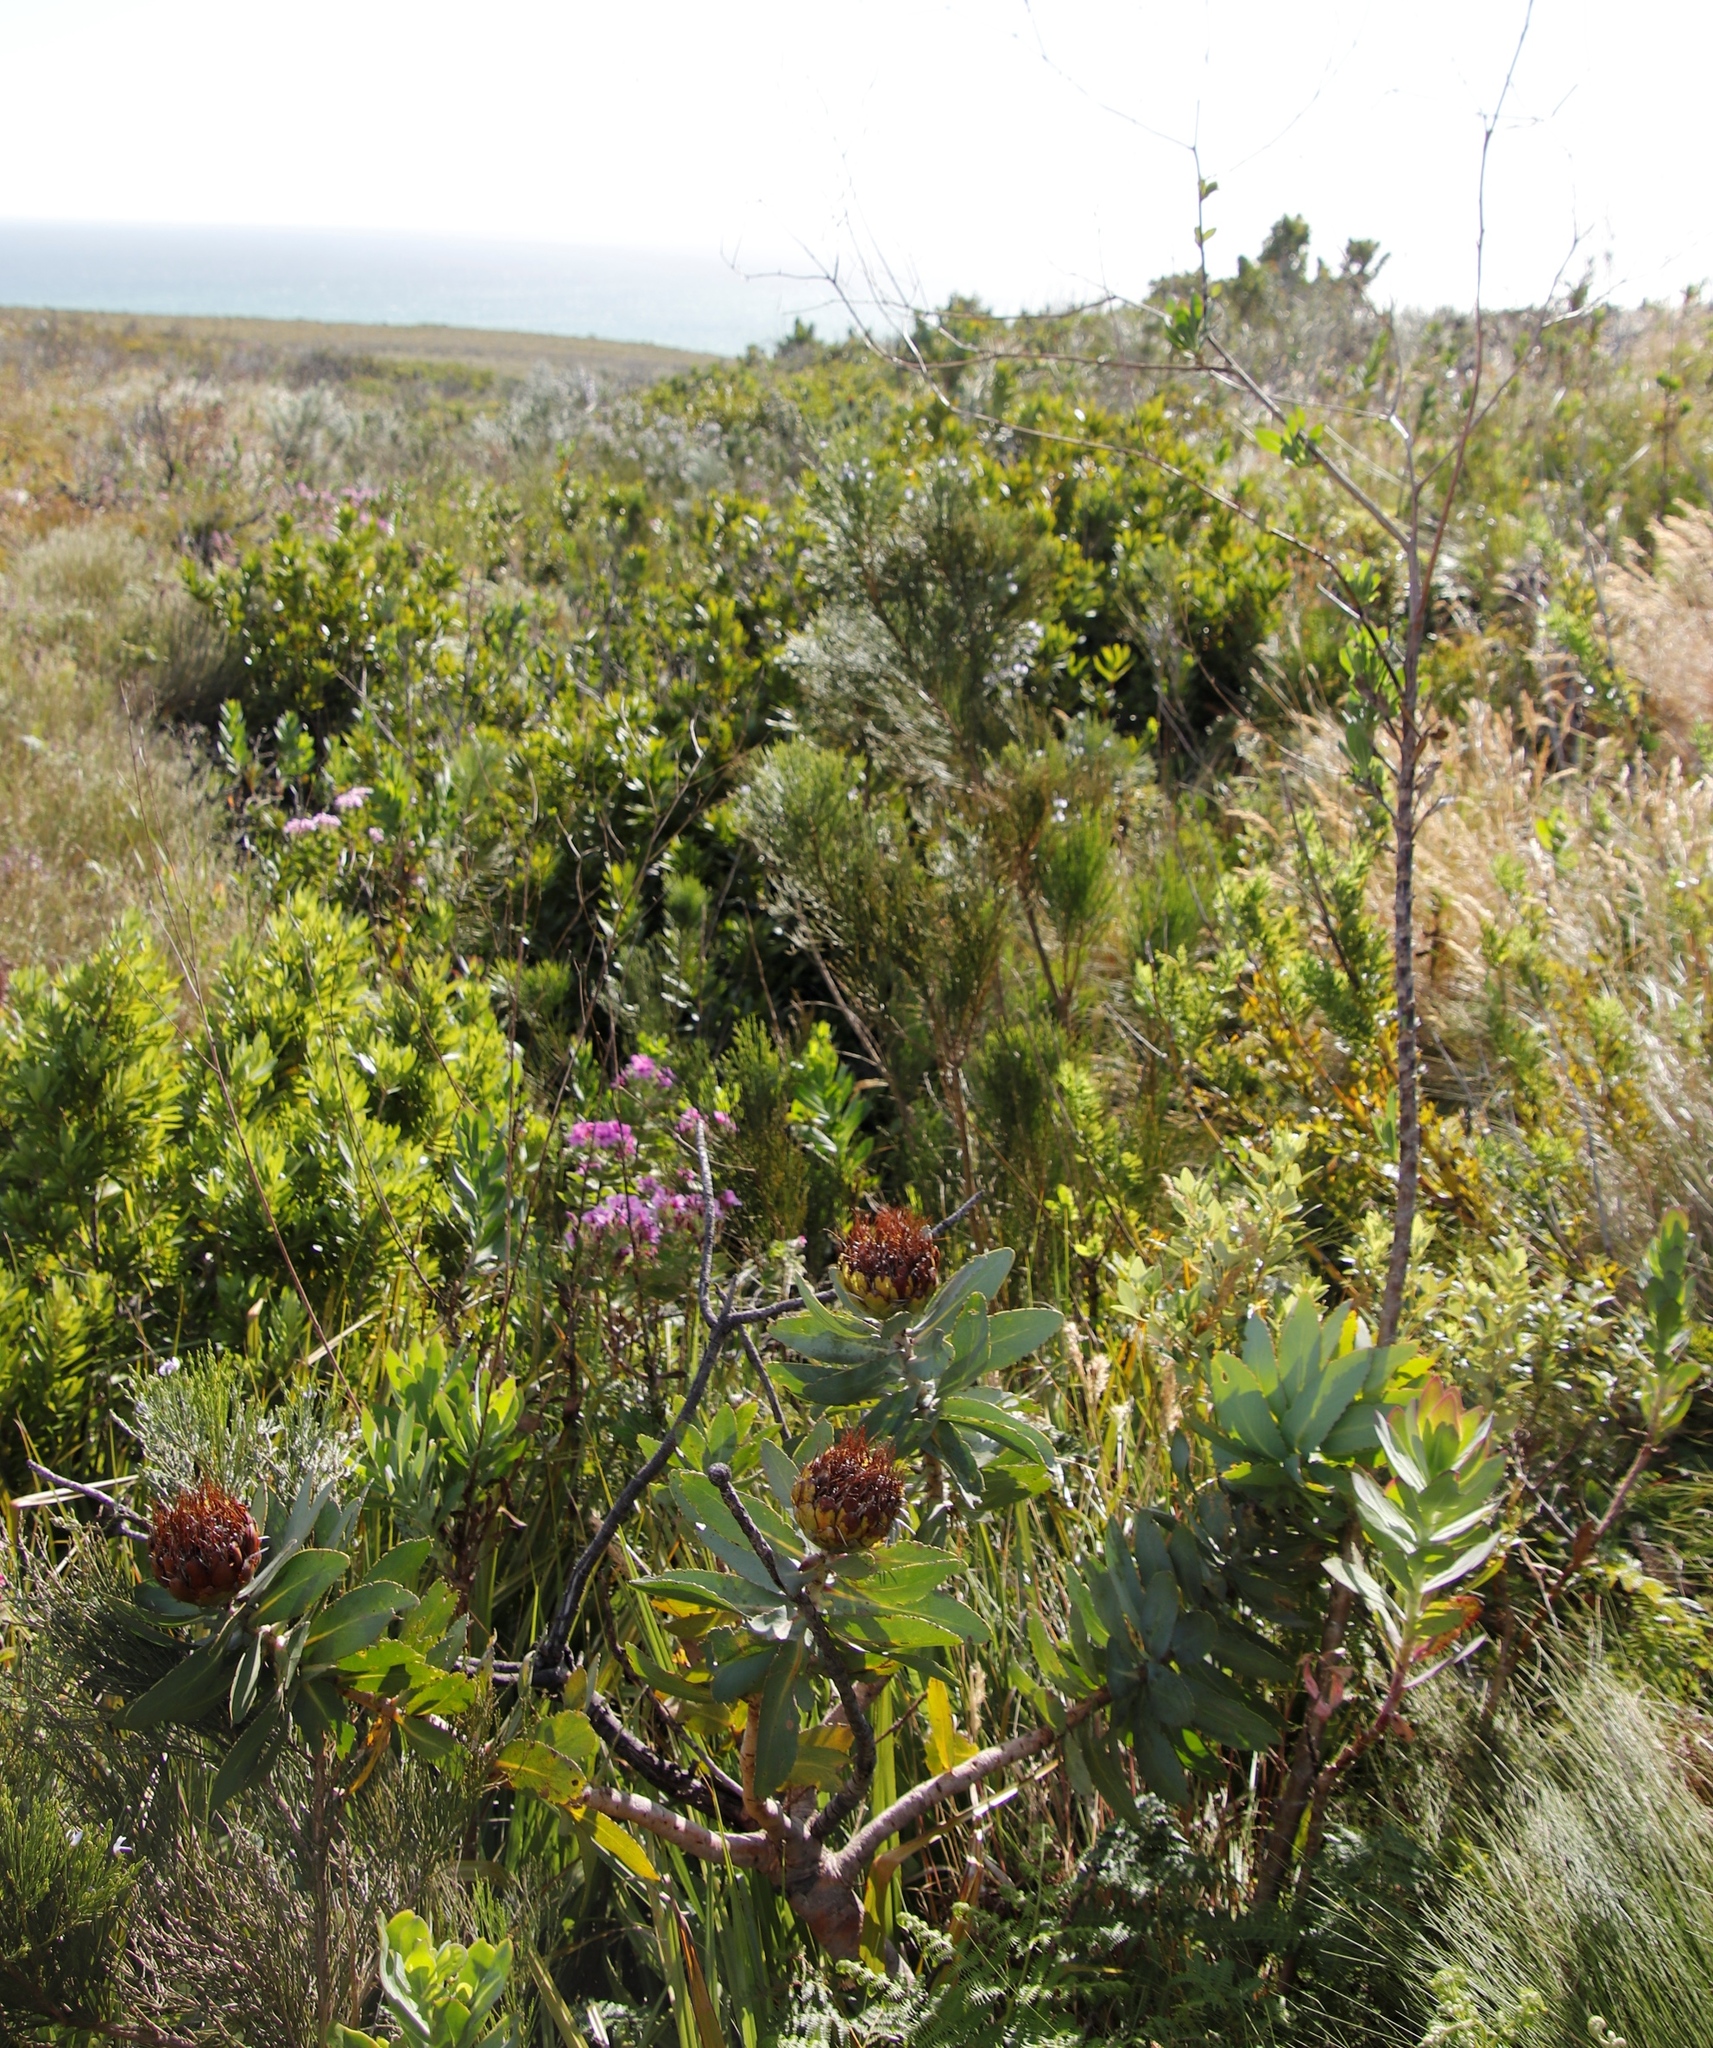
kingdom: Plantae
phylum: Tracheophyta
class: Magnoliopsida
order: Proteales
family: Proteaceae
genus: Protea
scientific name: Protea nitida
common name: Tree protea
